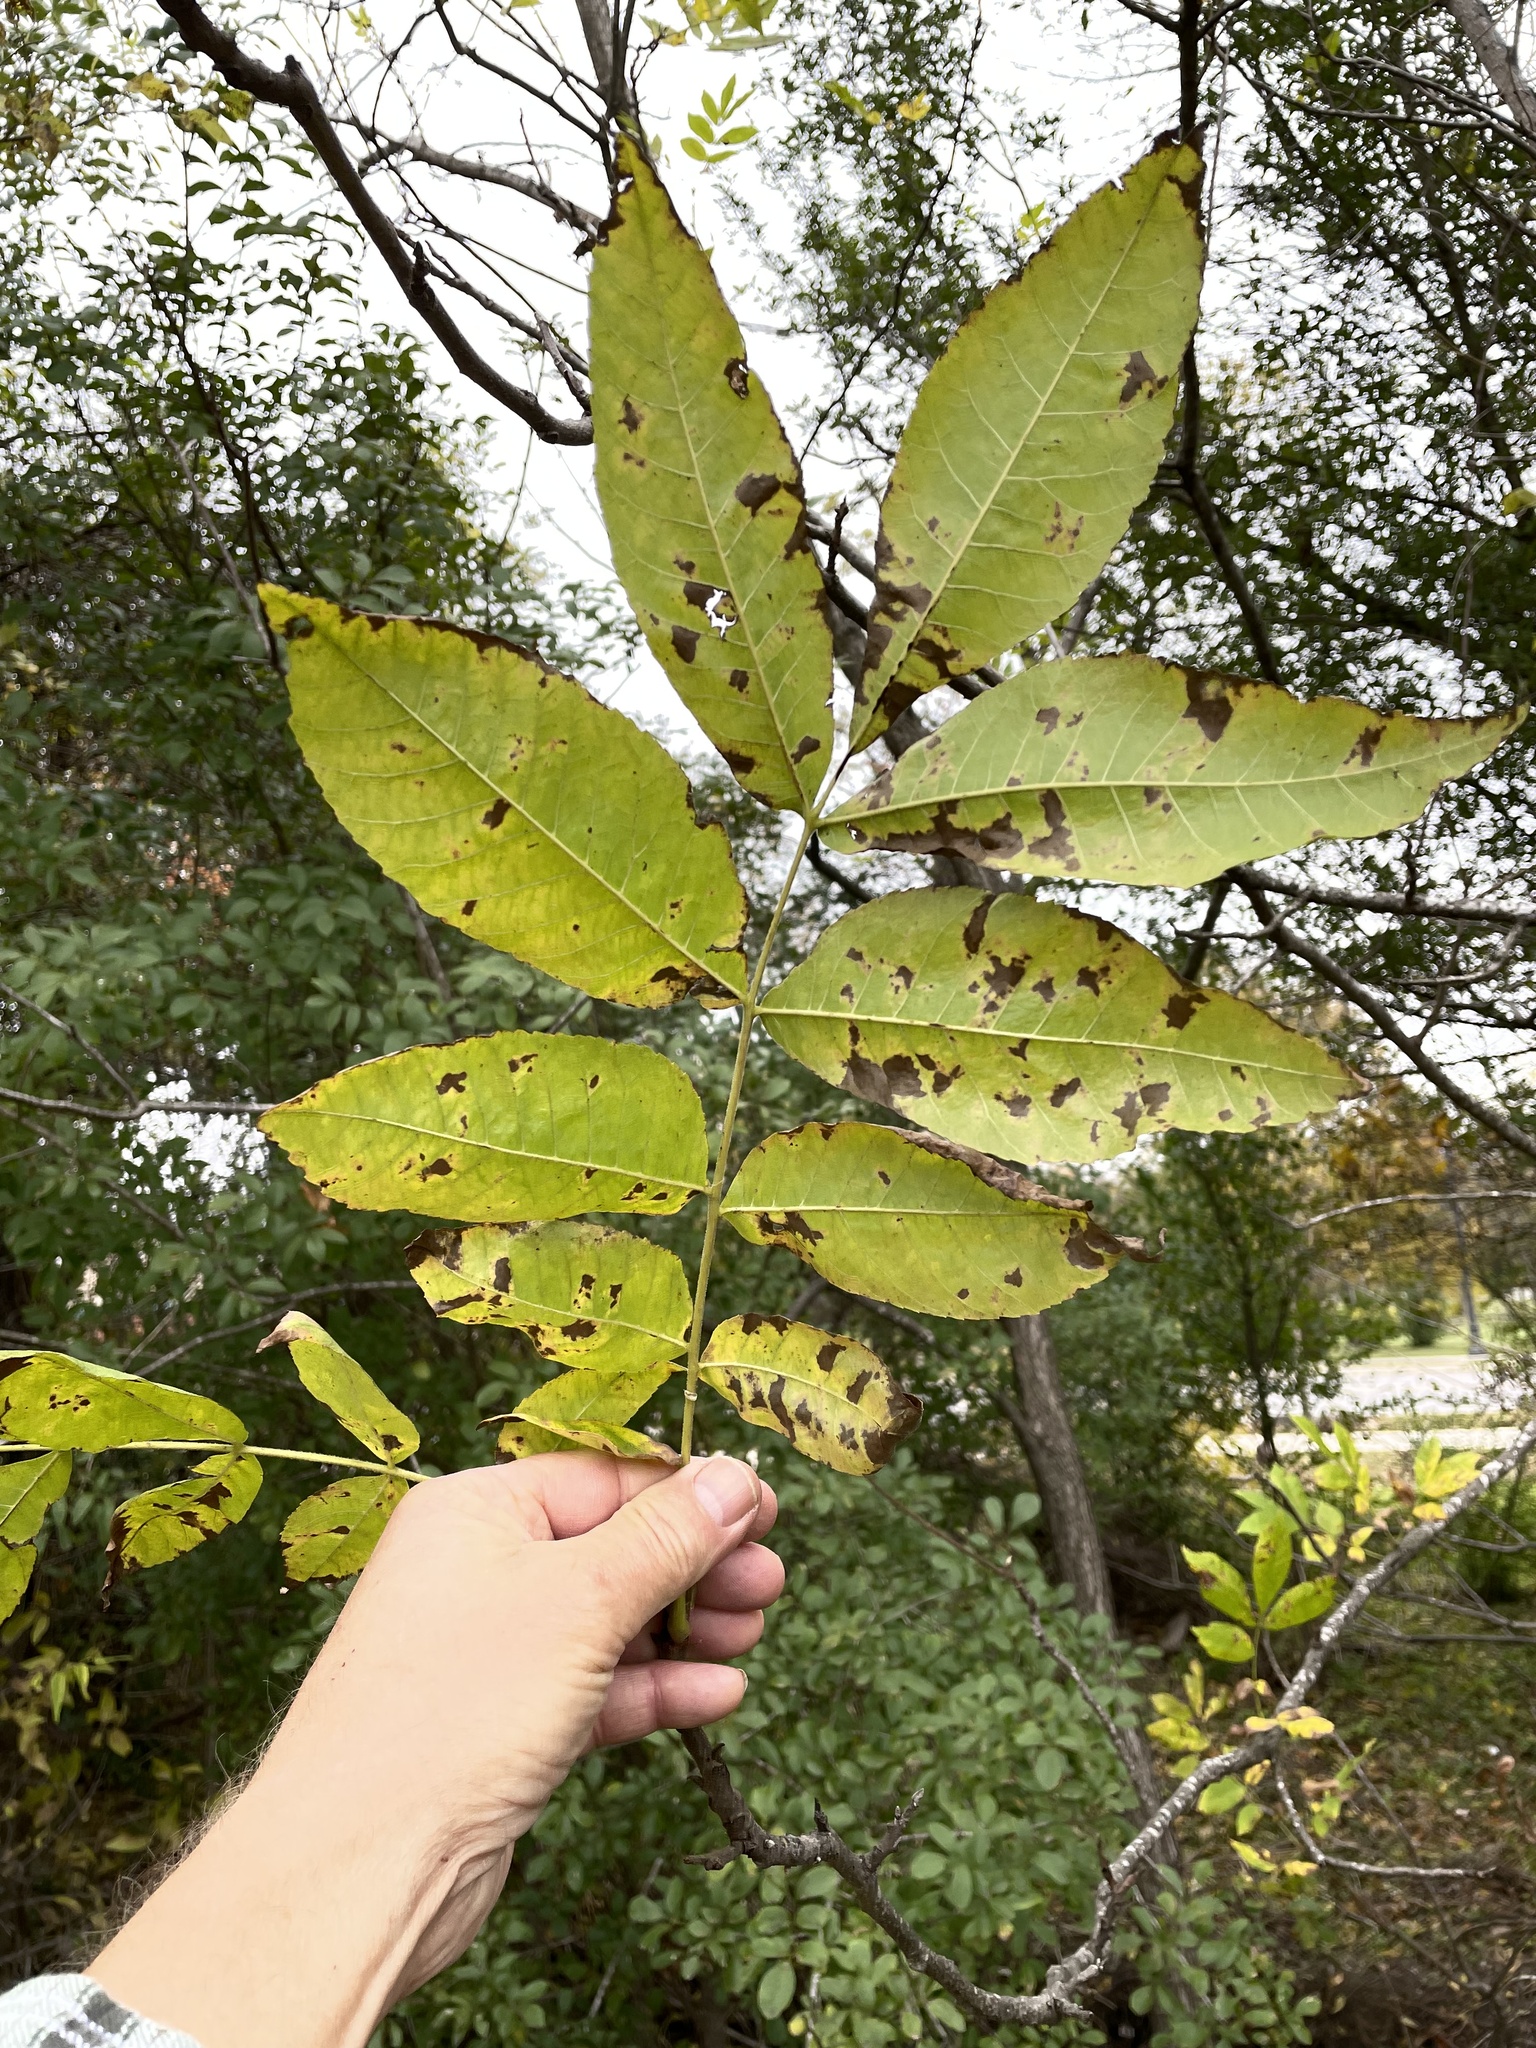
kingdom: Plantae
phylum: Tracheophyta
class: Magnoliopsida
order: Fagales
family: Juglandaceae
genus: Carya
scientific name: Carya illinoinensis
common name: Pecan
